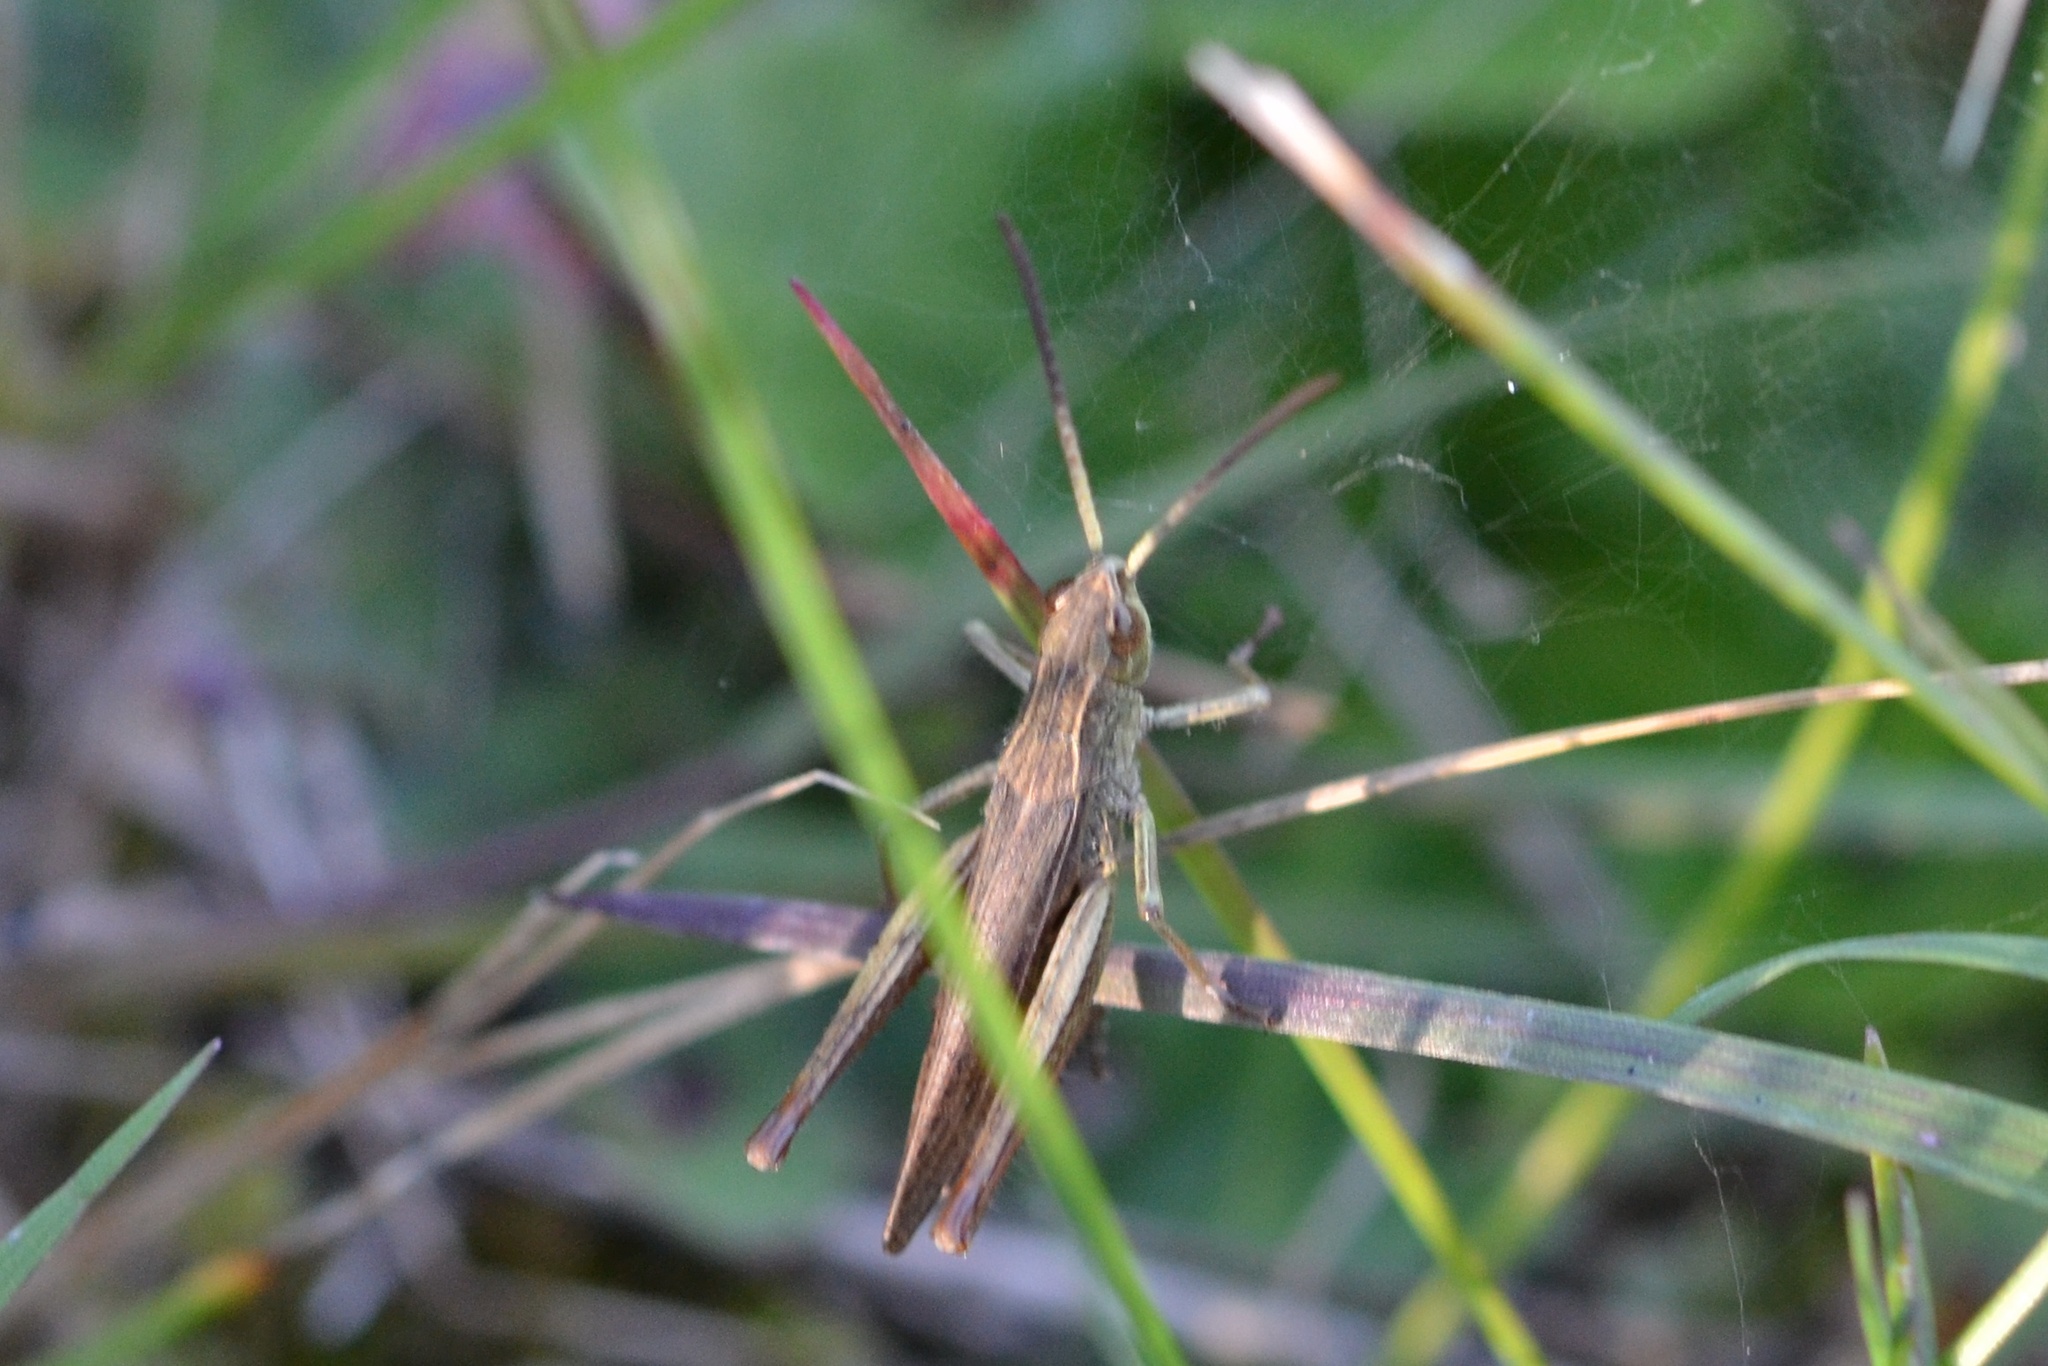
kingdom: Animalia
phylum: Arthropoda
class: Insecta
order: Orthoptera
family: Acrididae
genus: Chorthippus
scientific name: Chorthippus dorsatus
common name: Steppe grasshopper
